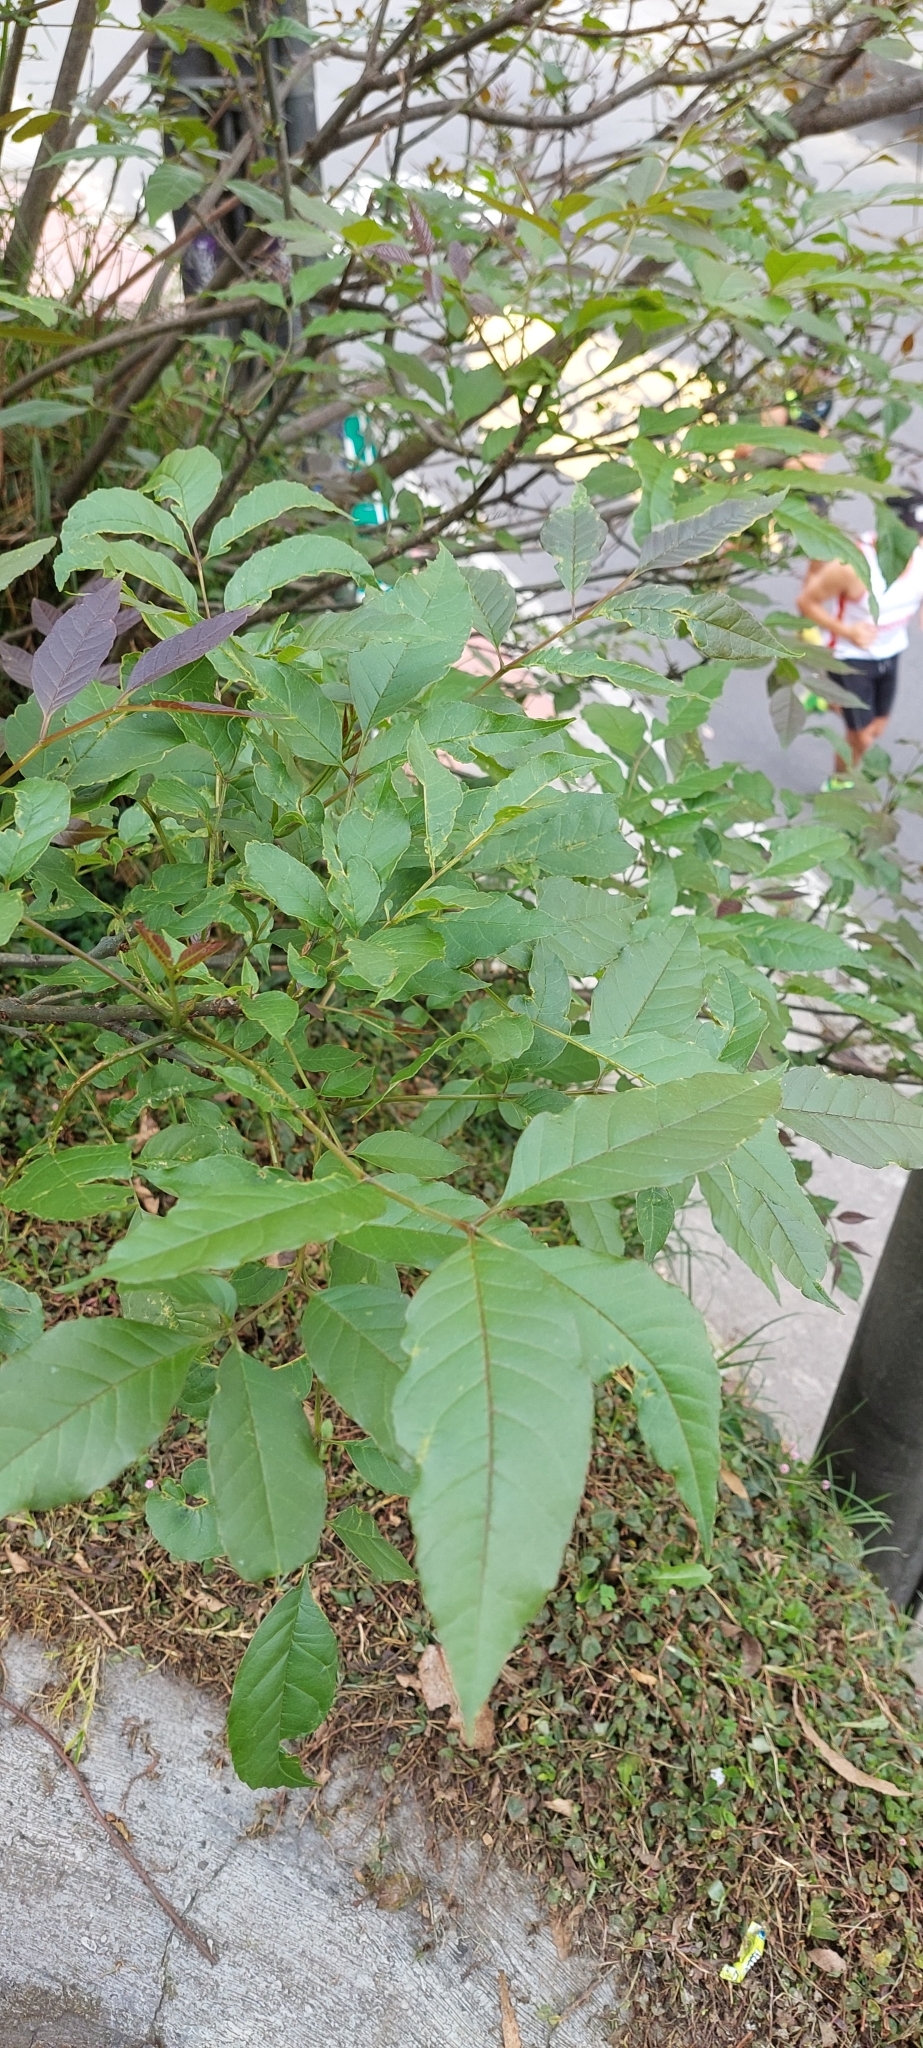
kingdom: Plantae
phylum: Tracheophyta
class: Magnoliopsida
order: Lamiales
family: Oleaceae
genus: Fraxinus
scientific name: Fraxinus uhdei
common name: Shamel ash
